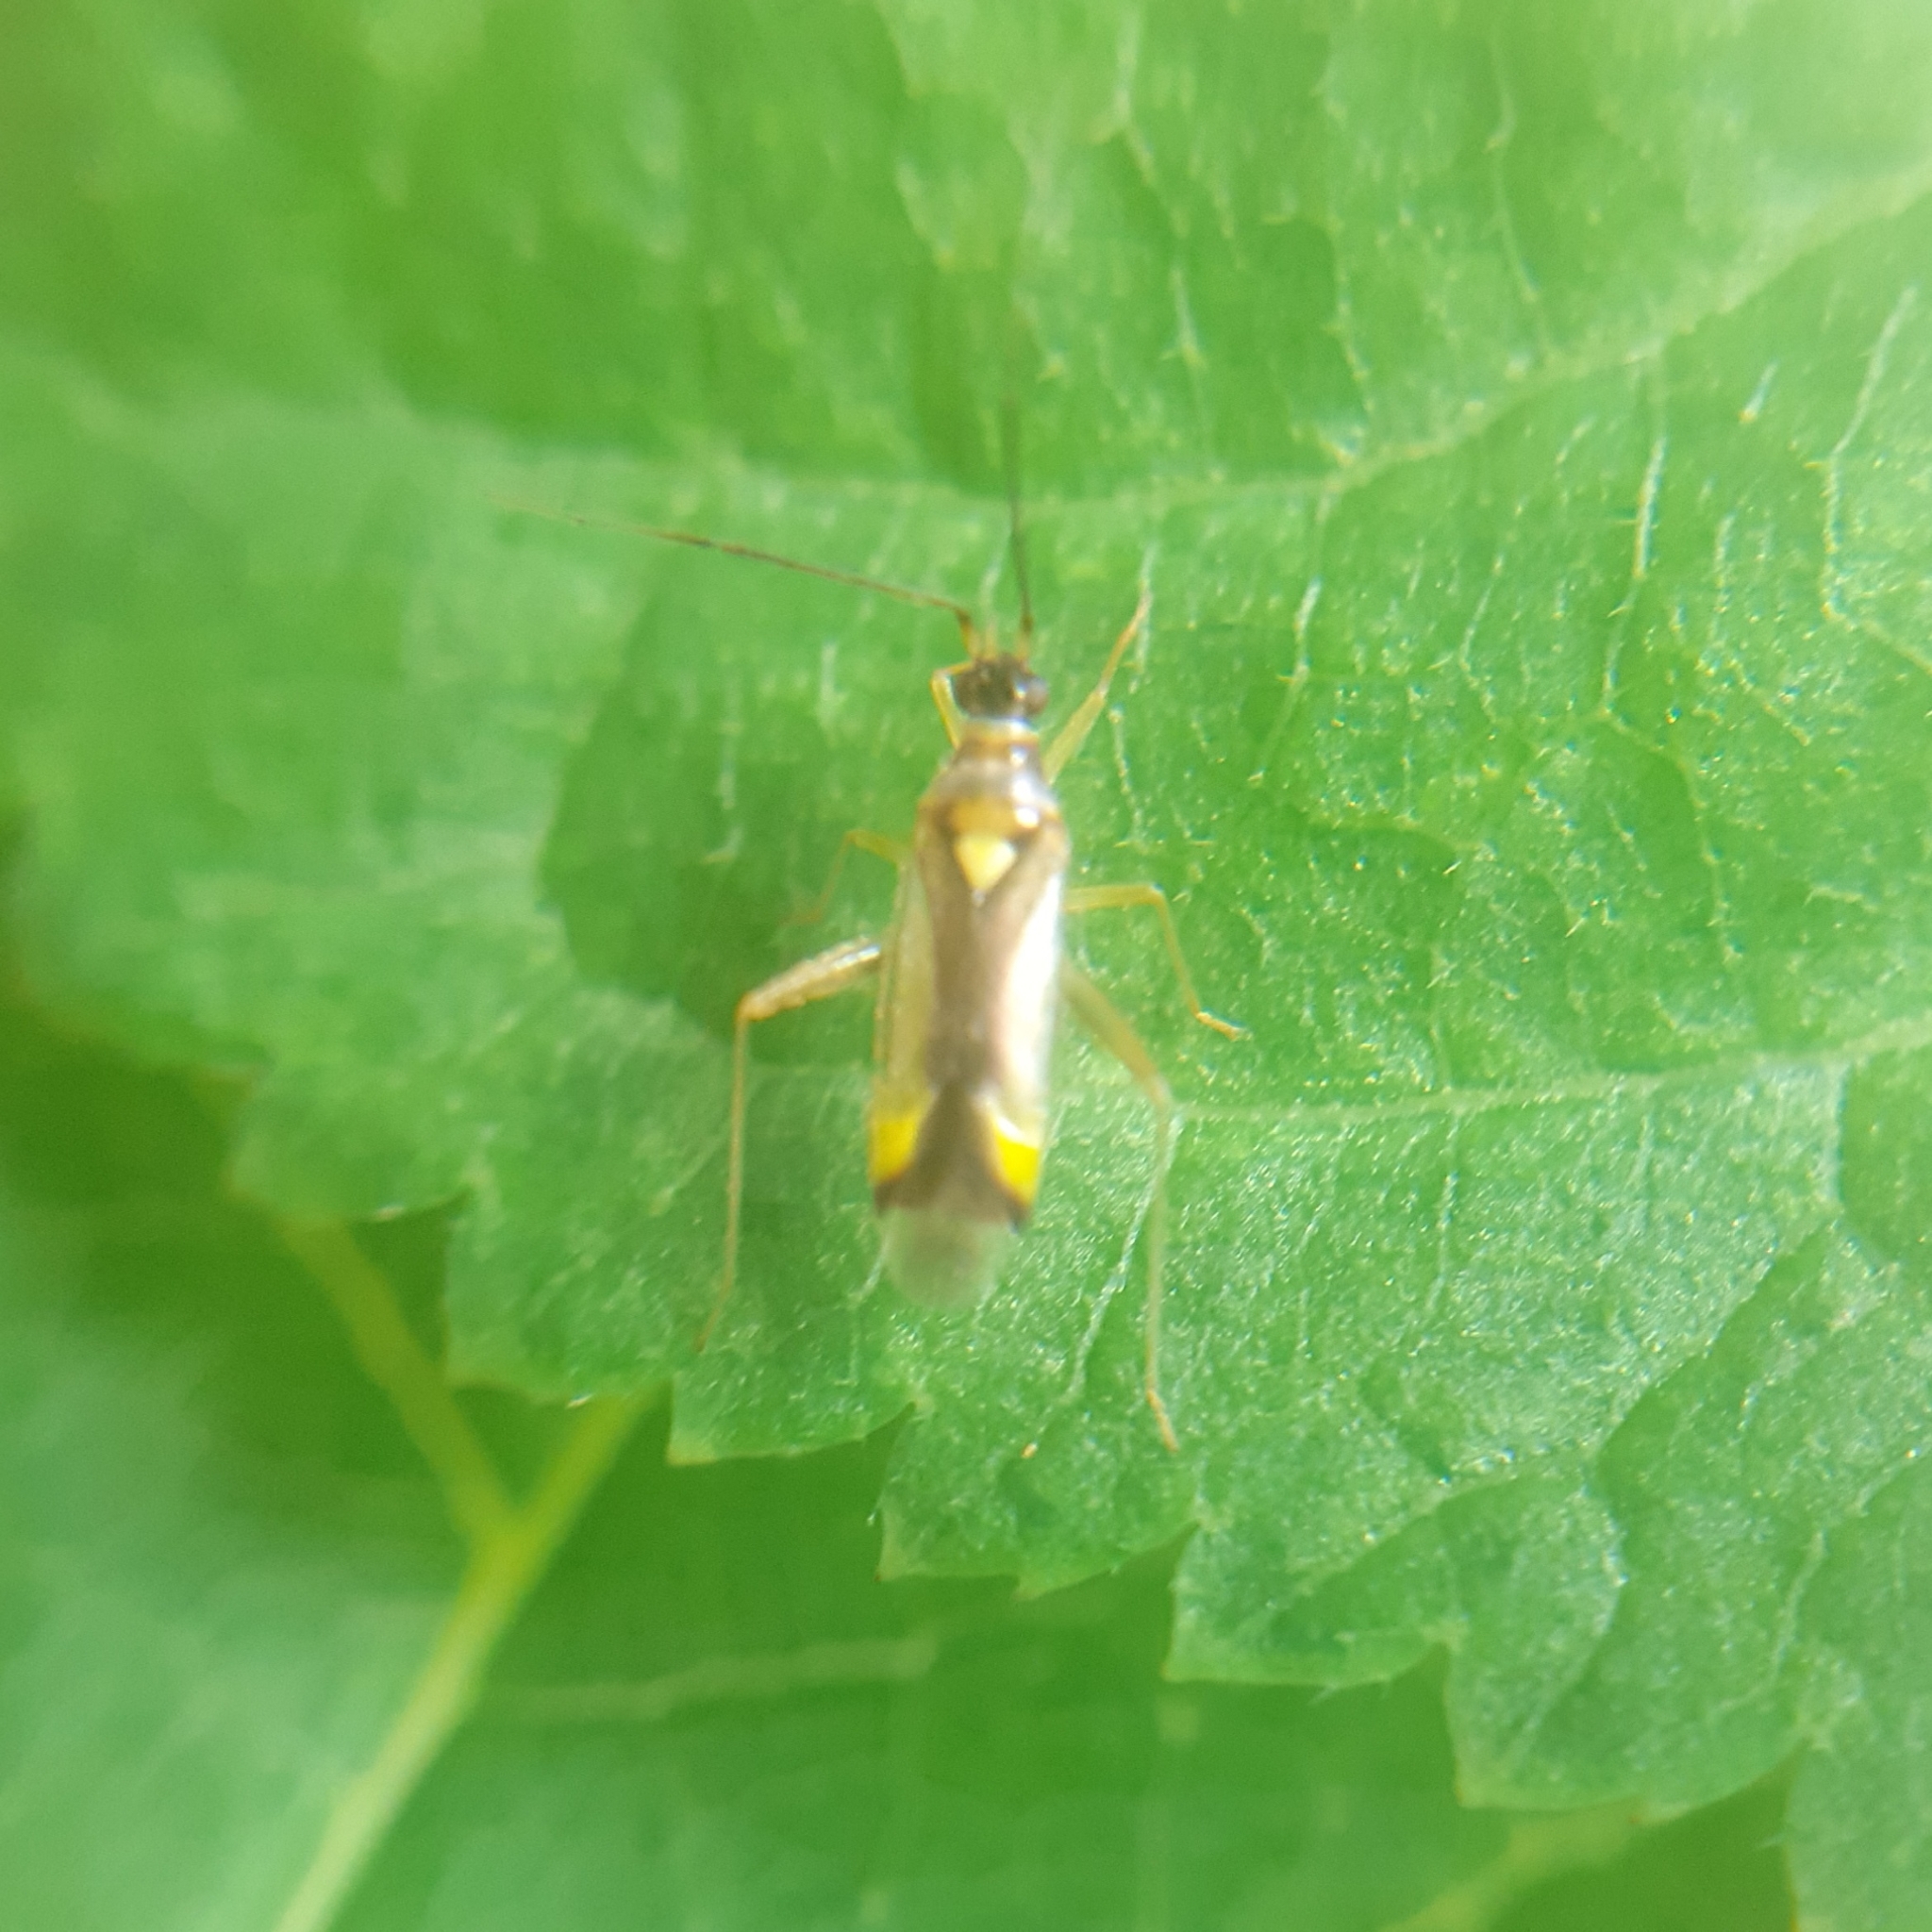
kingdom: Animalia
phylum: Arthropoda
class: Insecta
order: Hemiptera
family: Miridae
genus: Campyloneura
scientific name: Campyloneura virgula
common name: Predatory bug
